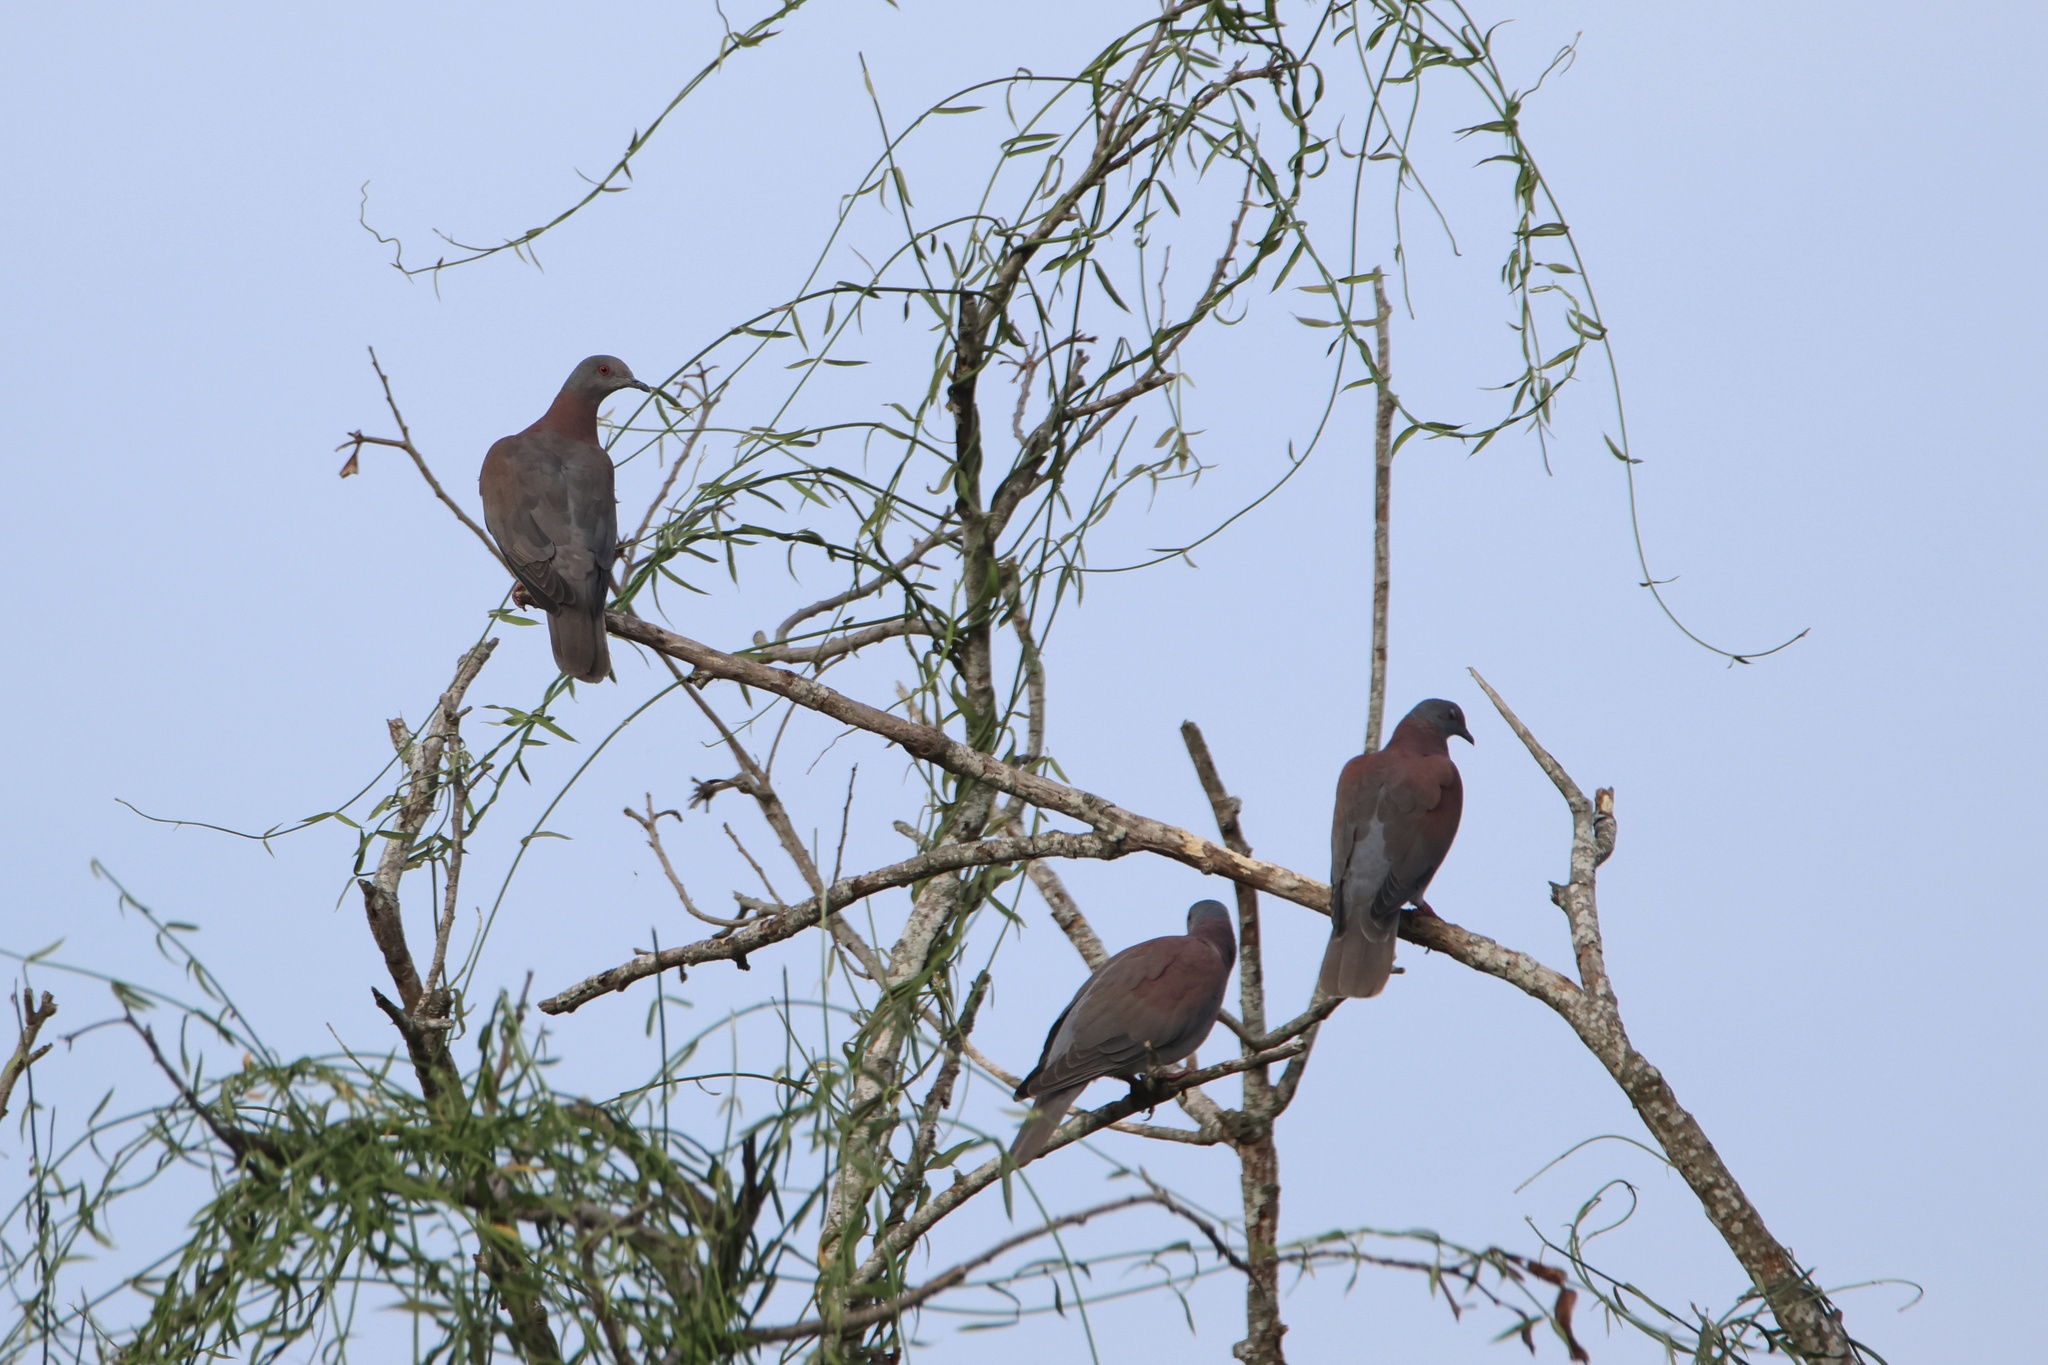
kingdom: Animalia
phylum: Chordata
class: Aves
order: Columbiformes
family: Columbidae
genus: Patagioenas
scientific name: Patagioenas cayennensis
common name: Pale-vented pigeon
